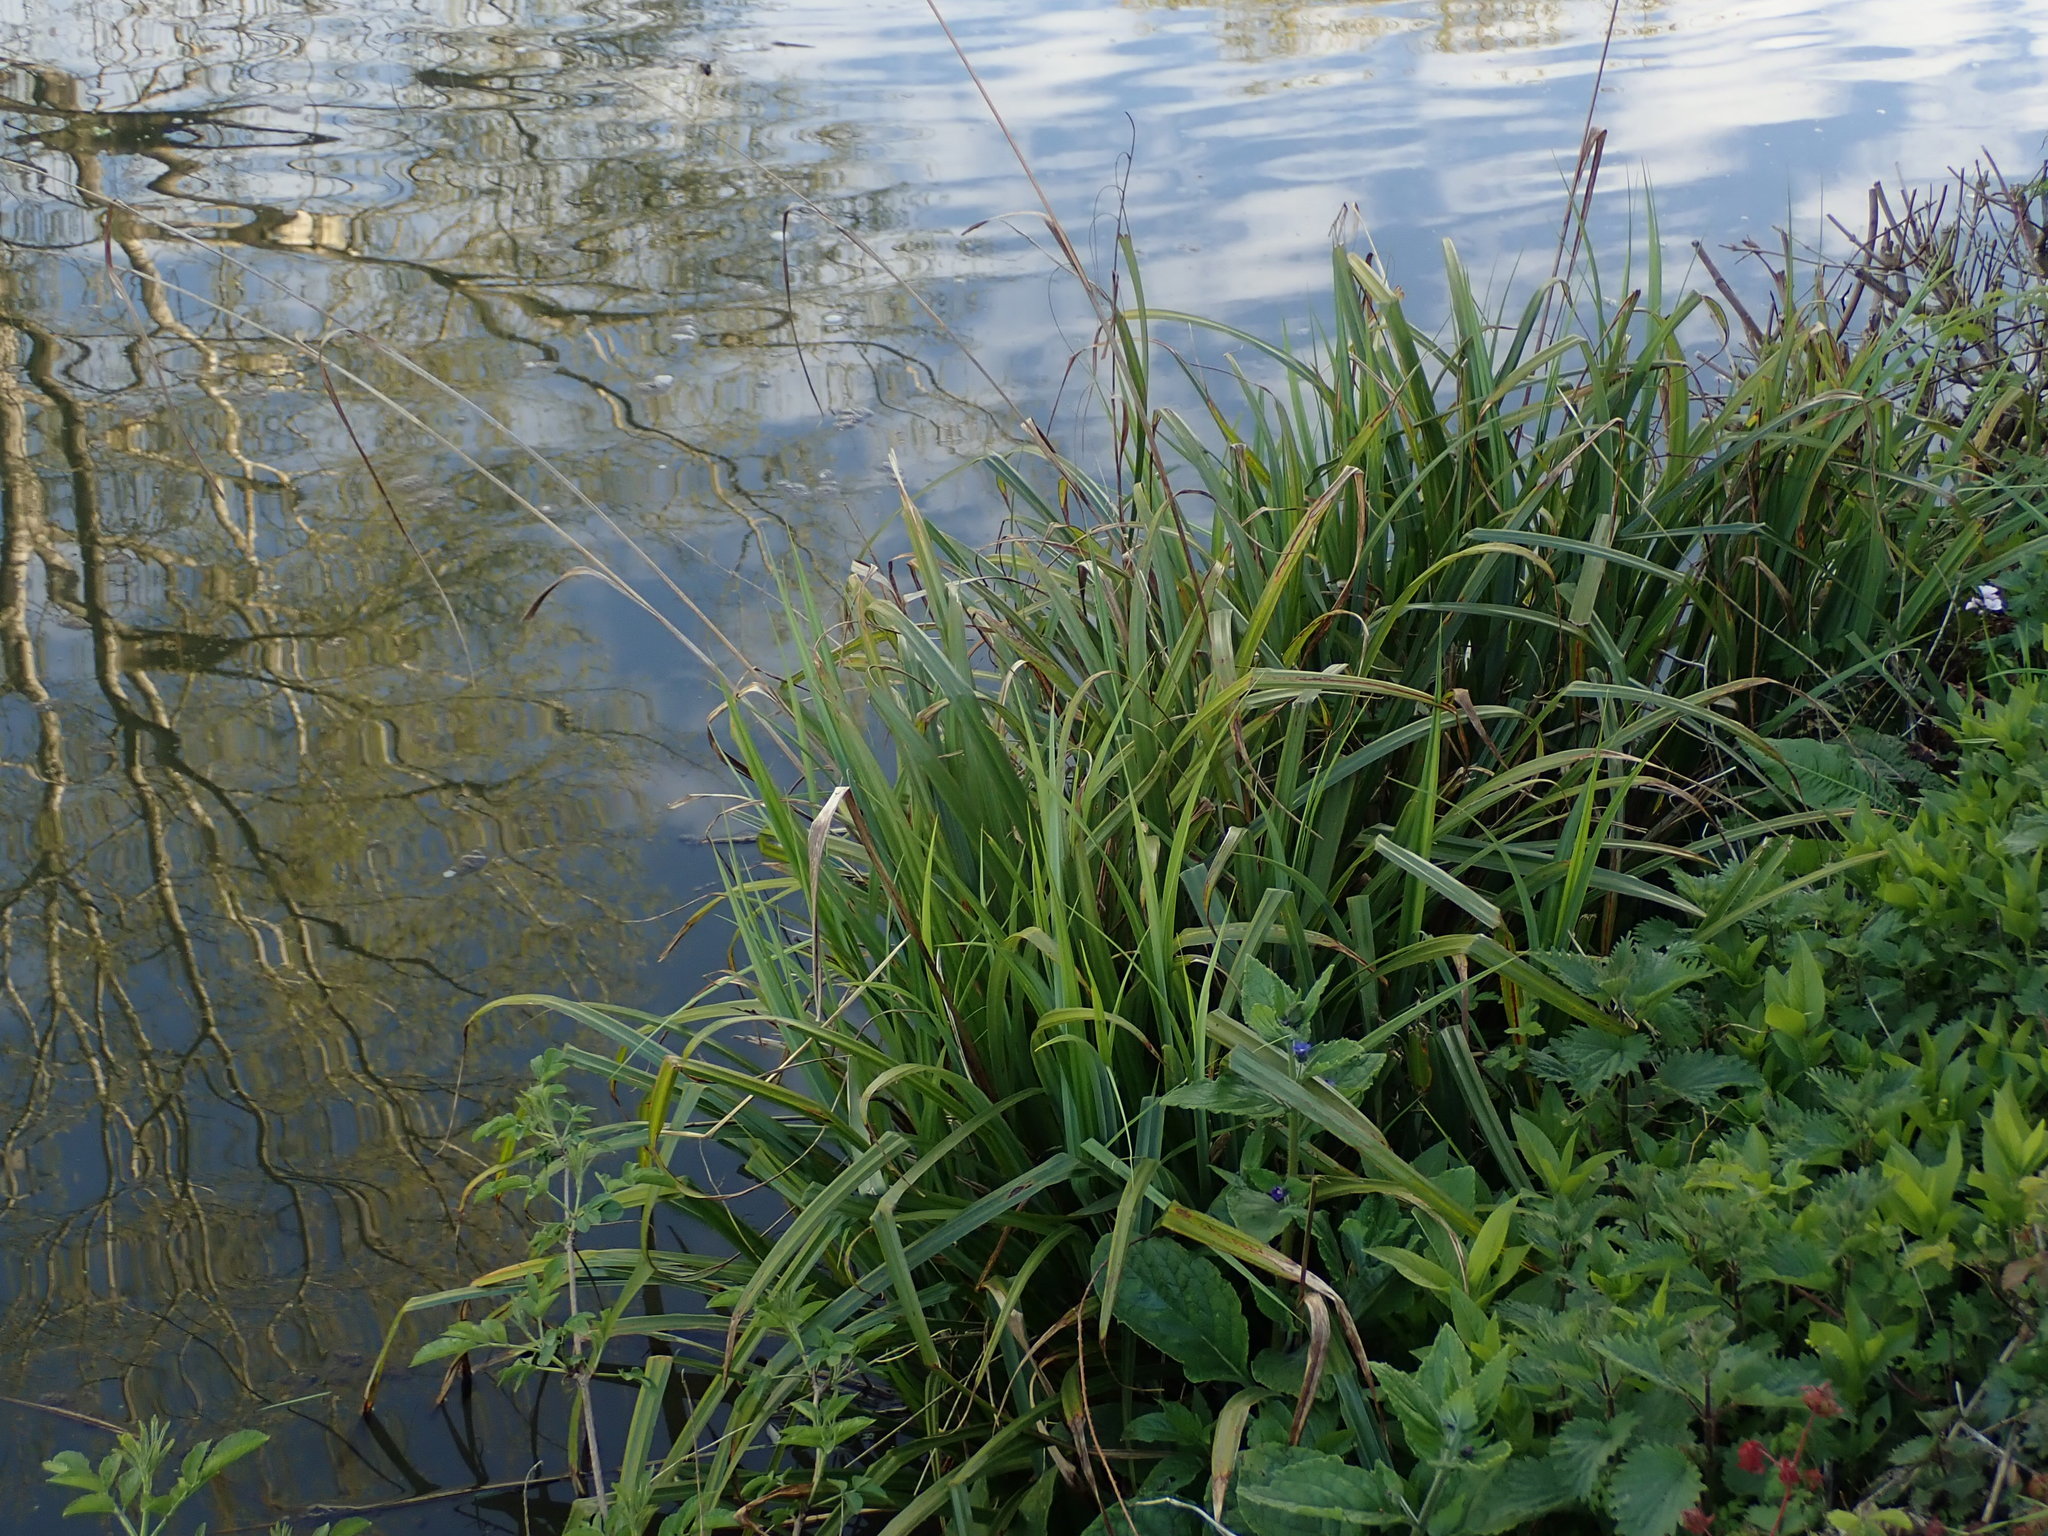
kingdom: Plantae
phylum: Tracheophyta
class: Liliopsida
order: Poales
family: Cyperaceae
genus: Carex
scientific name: Carex pendula
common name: Pendulous sedge
